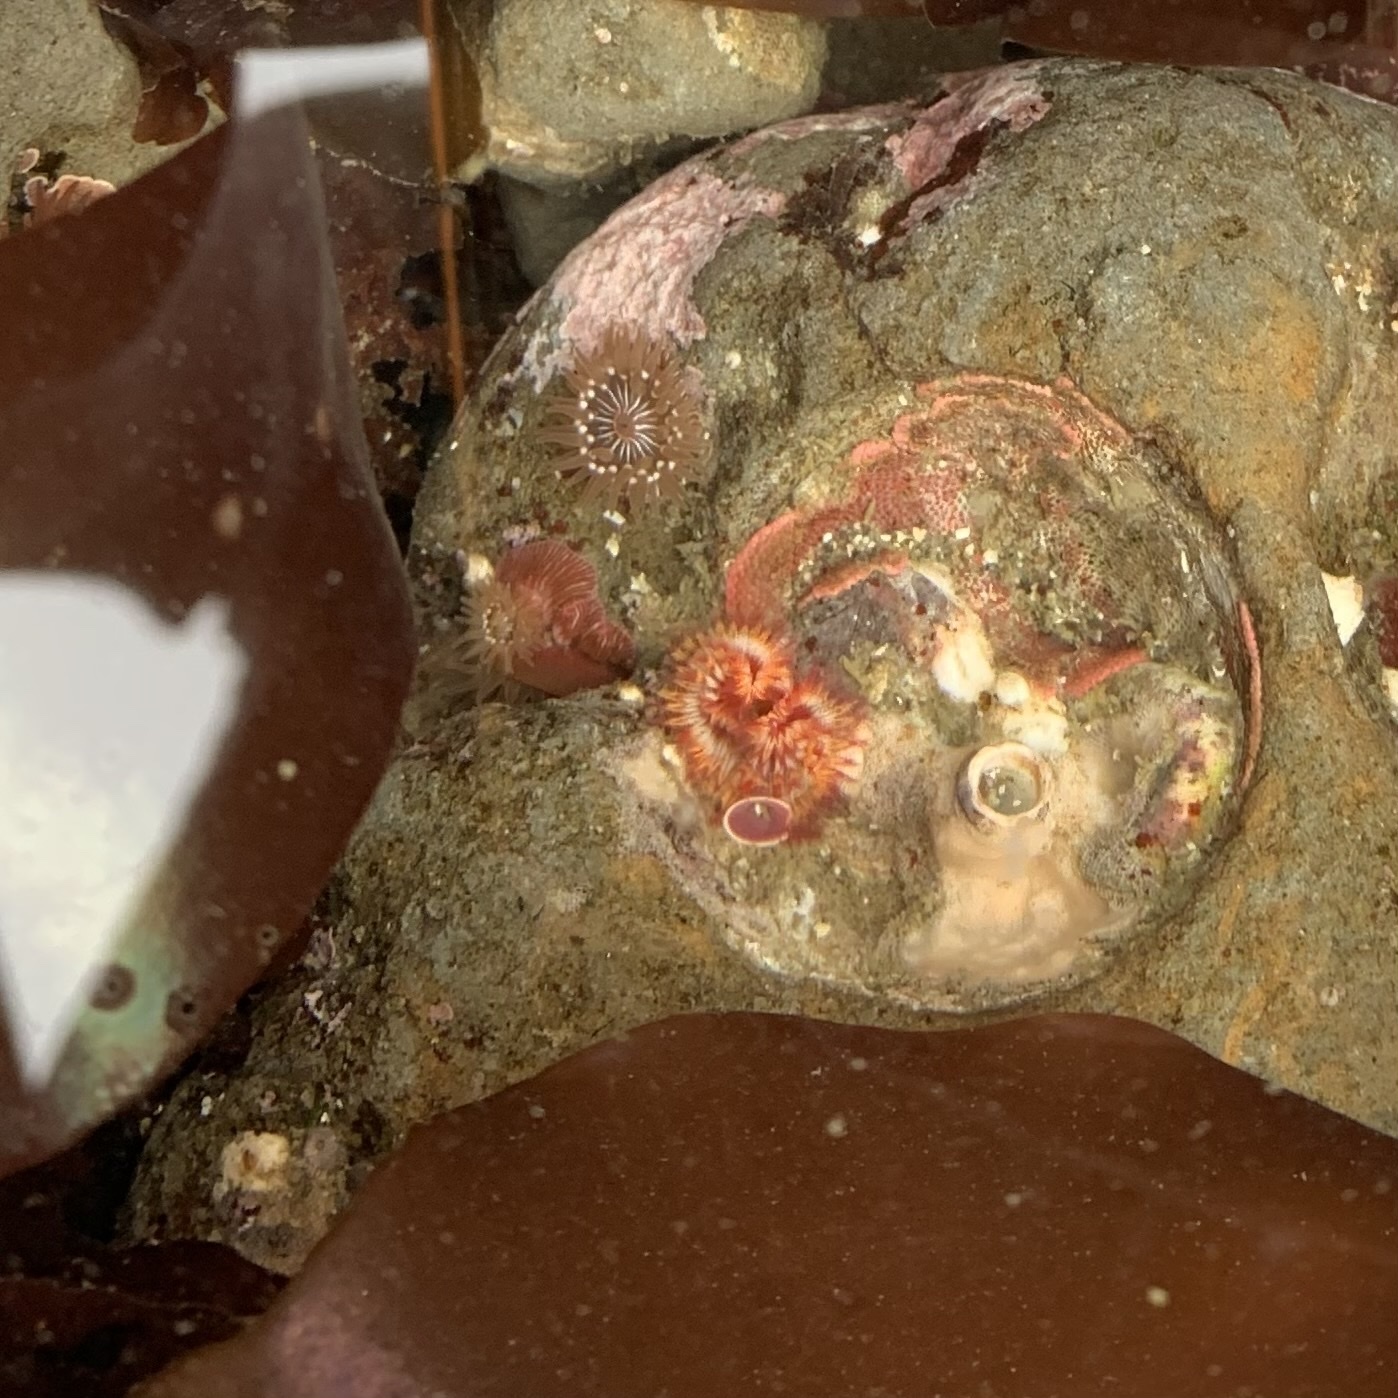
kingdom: Animalia
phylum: Annelida
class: Polychaeta
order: Sabellida
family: Serpulidae
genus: Serpula
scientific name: Serpula columbiana
